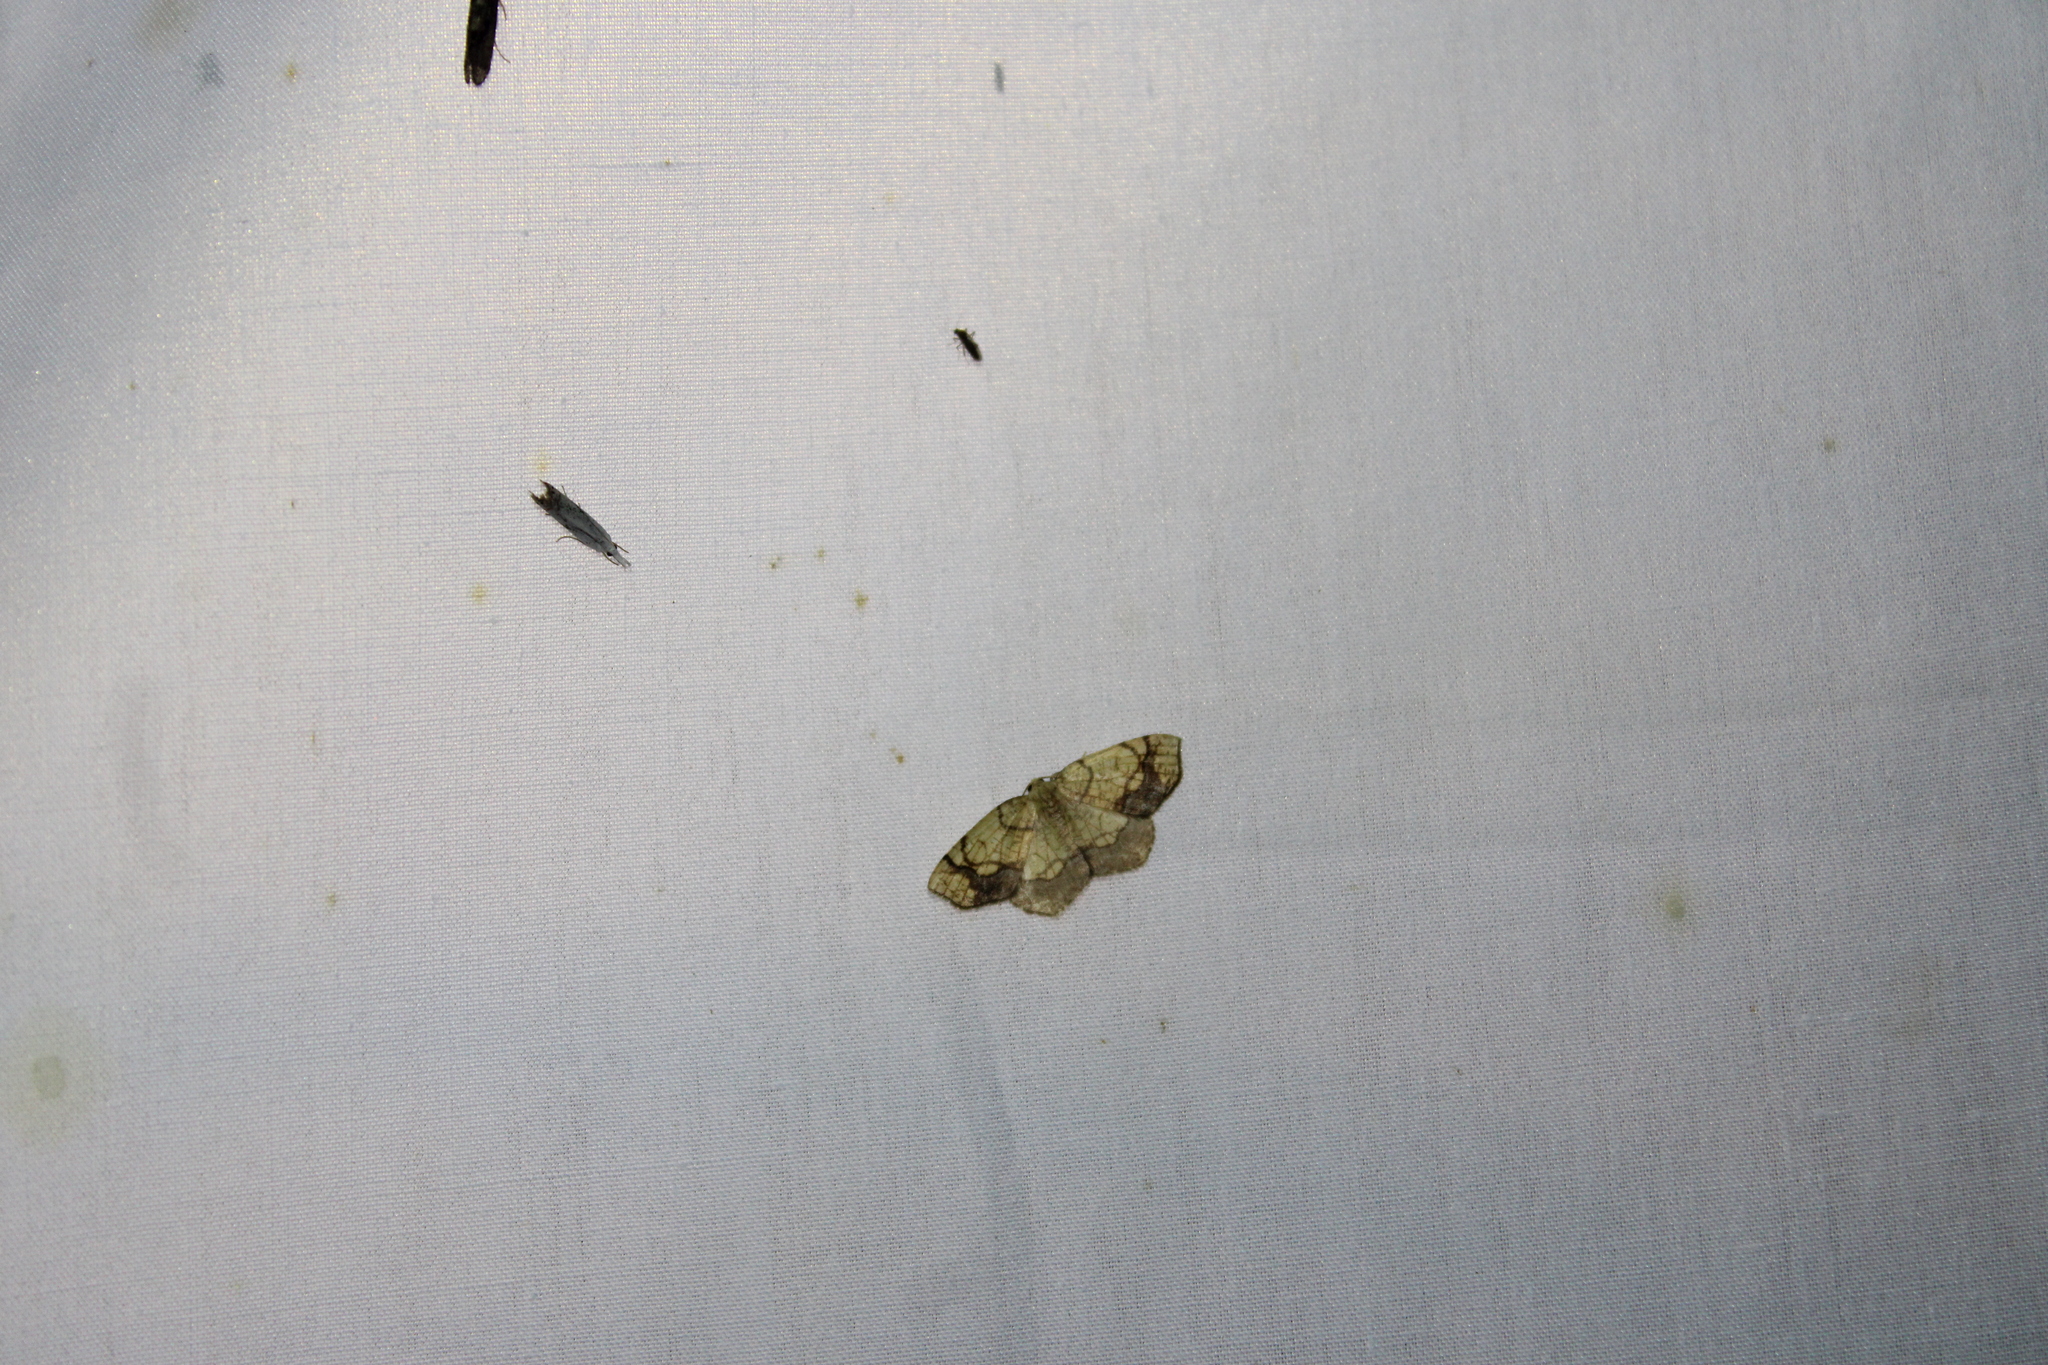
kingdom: Animalia
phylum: Arthropoda
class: Insecta
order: Lepidoptera
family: Geometridae
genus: Nematocampa
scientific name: Nematocampa resistaria
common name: Horned spanworm moth
